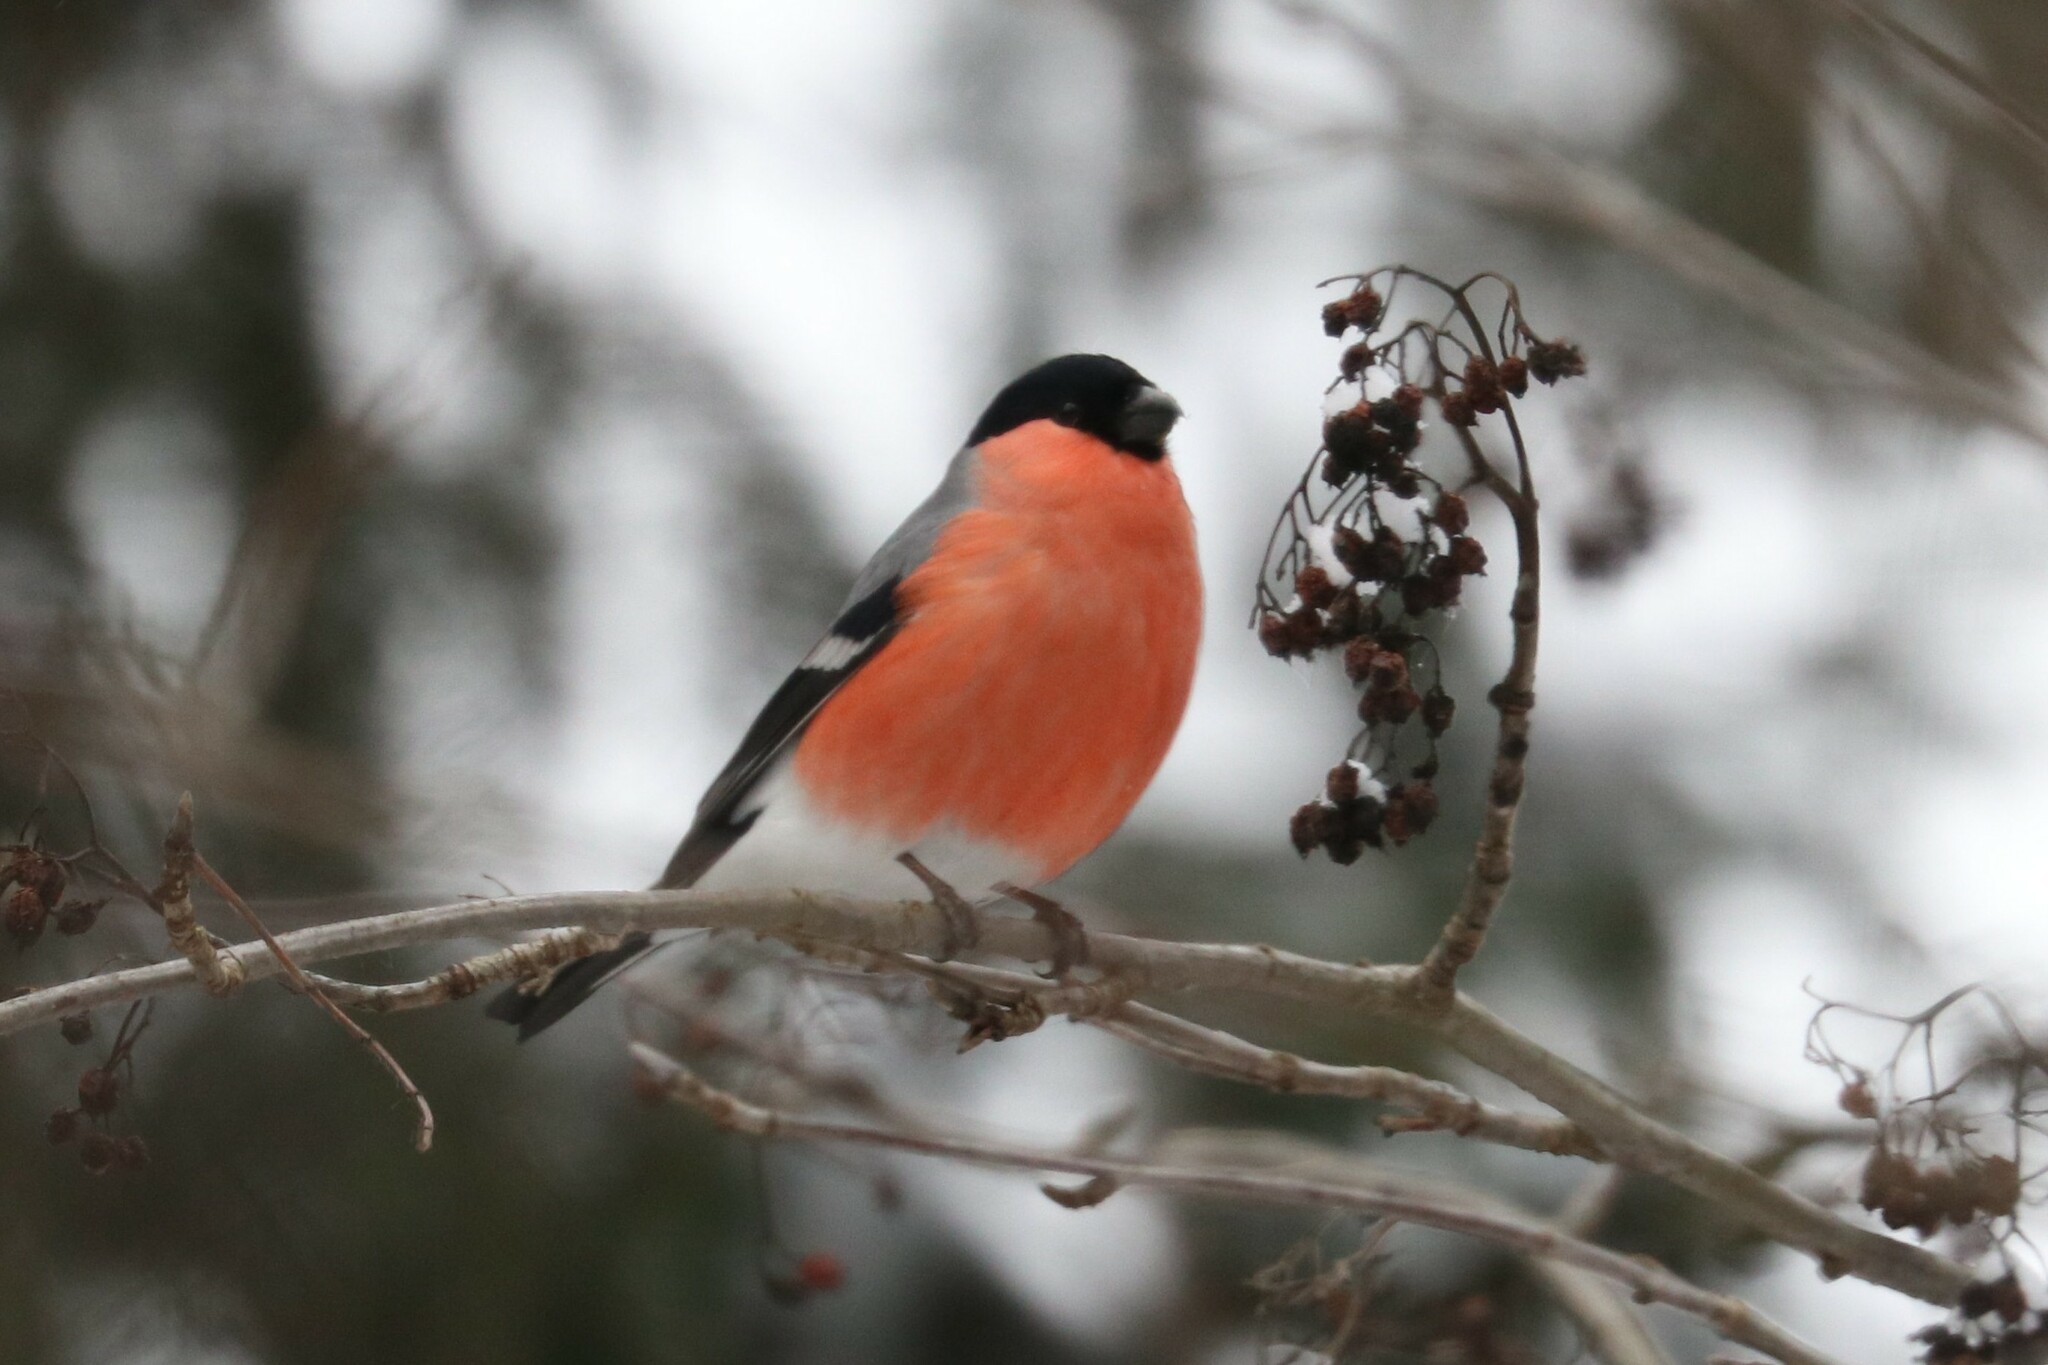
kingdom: Animalia
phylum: Chordata
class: Aves
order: Passeriformes
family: Fringillidae
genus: Pyrrhula
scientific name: Pyrrhula pyrrhula
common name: Eurasian bullfinch
